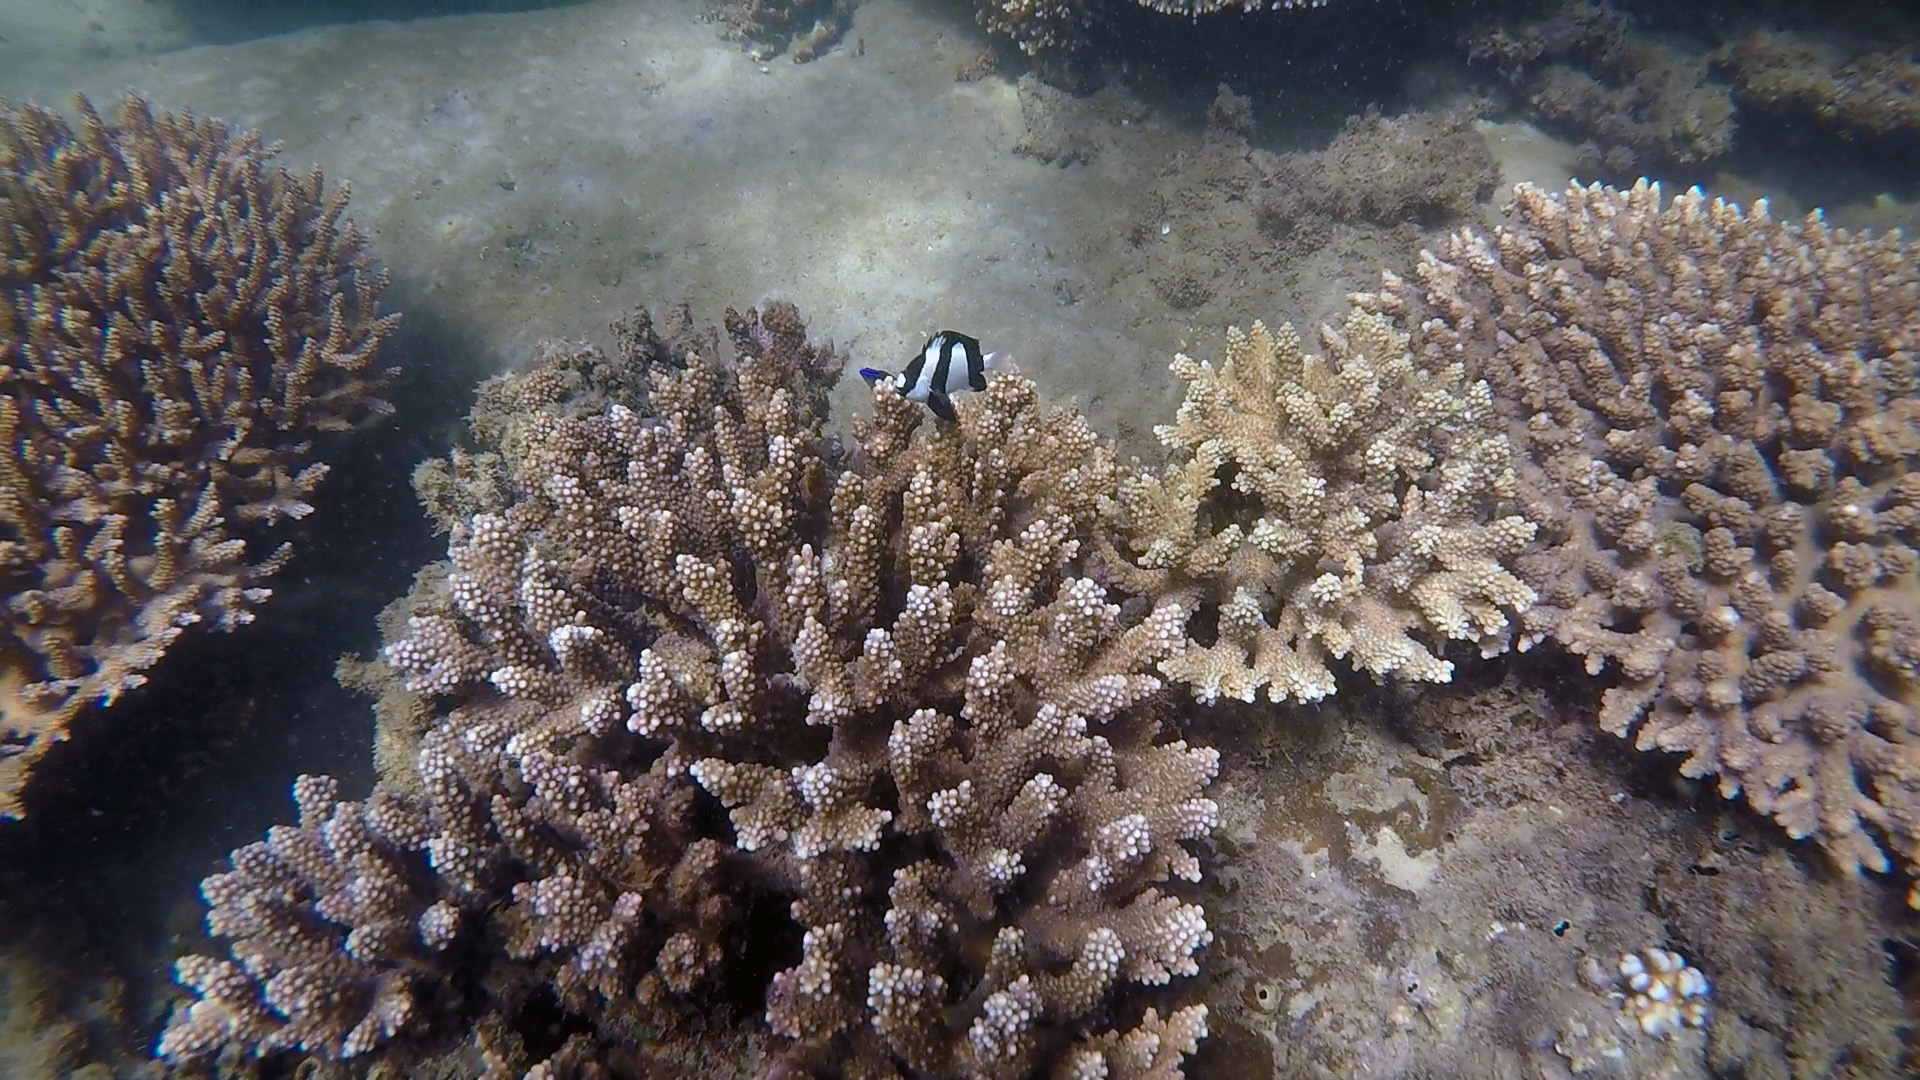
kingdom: Animalia
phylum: Chordata
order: Perciformes
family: Pomacentridae
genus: Dascyllus
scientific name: Dascyllus aruanus
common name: Humbug dascyllus
